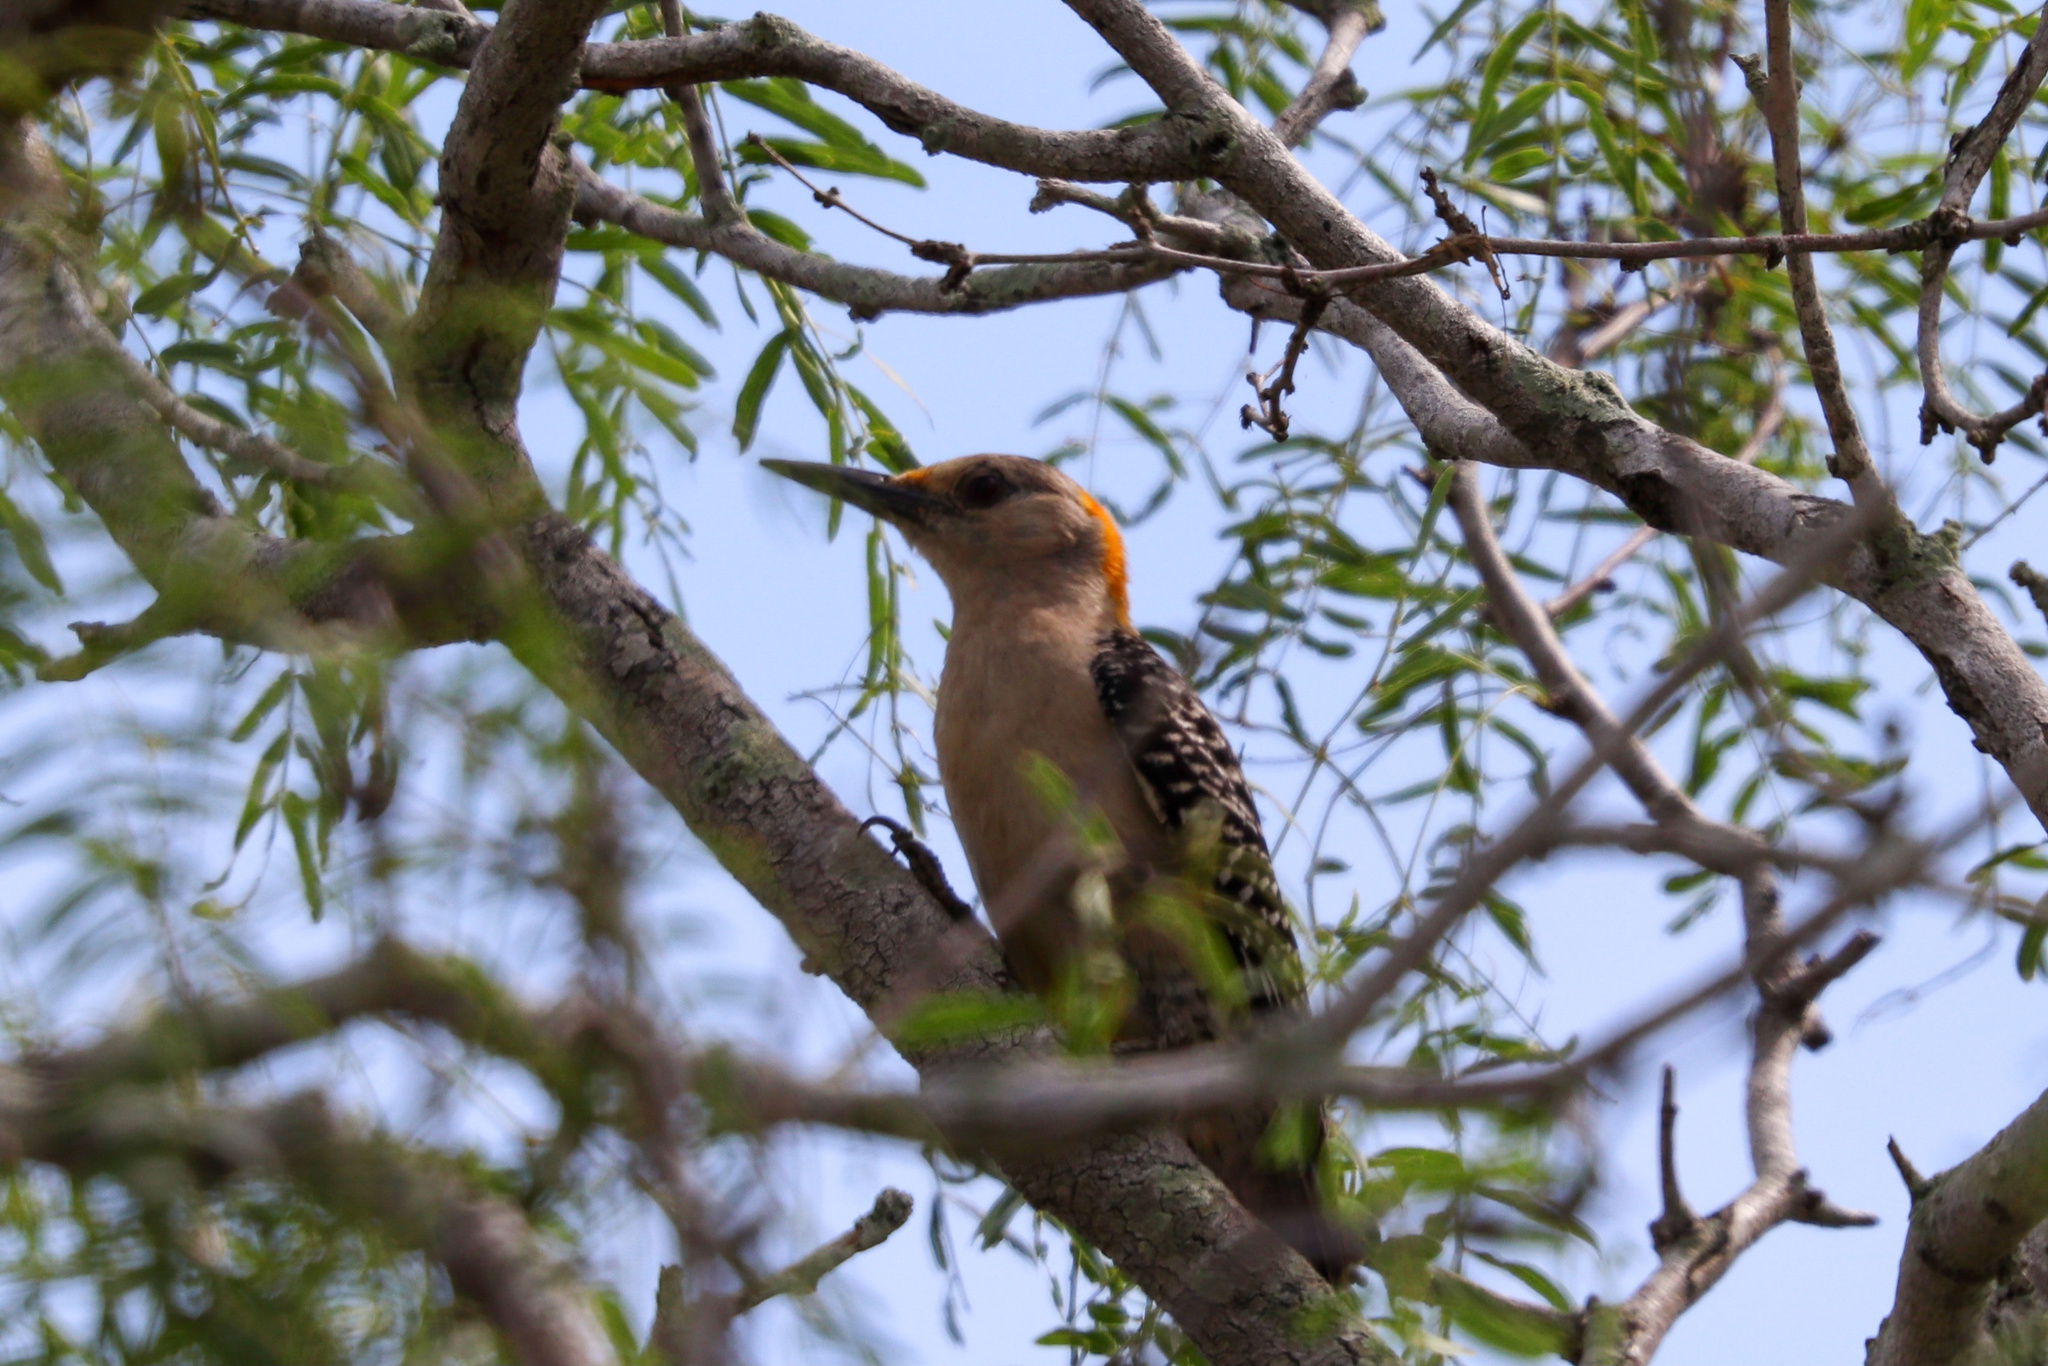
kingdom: Animalia
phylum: Chordata
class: Aves
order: Piciformes
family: Picidae
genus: Melanerpes
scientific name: Melanerpes aurifrons
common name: Golden-fronted woodpecker
